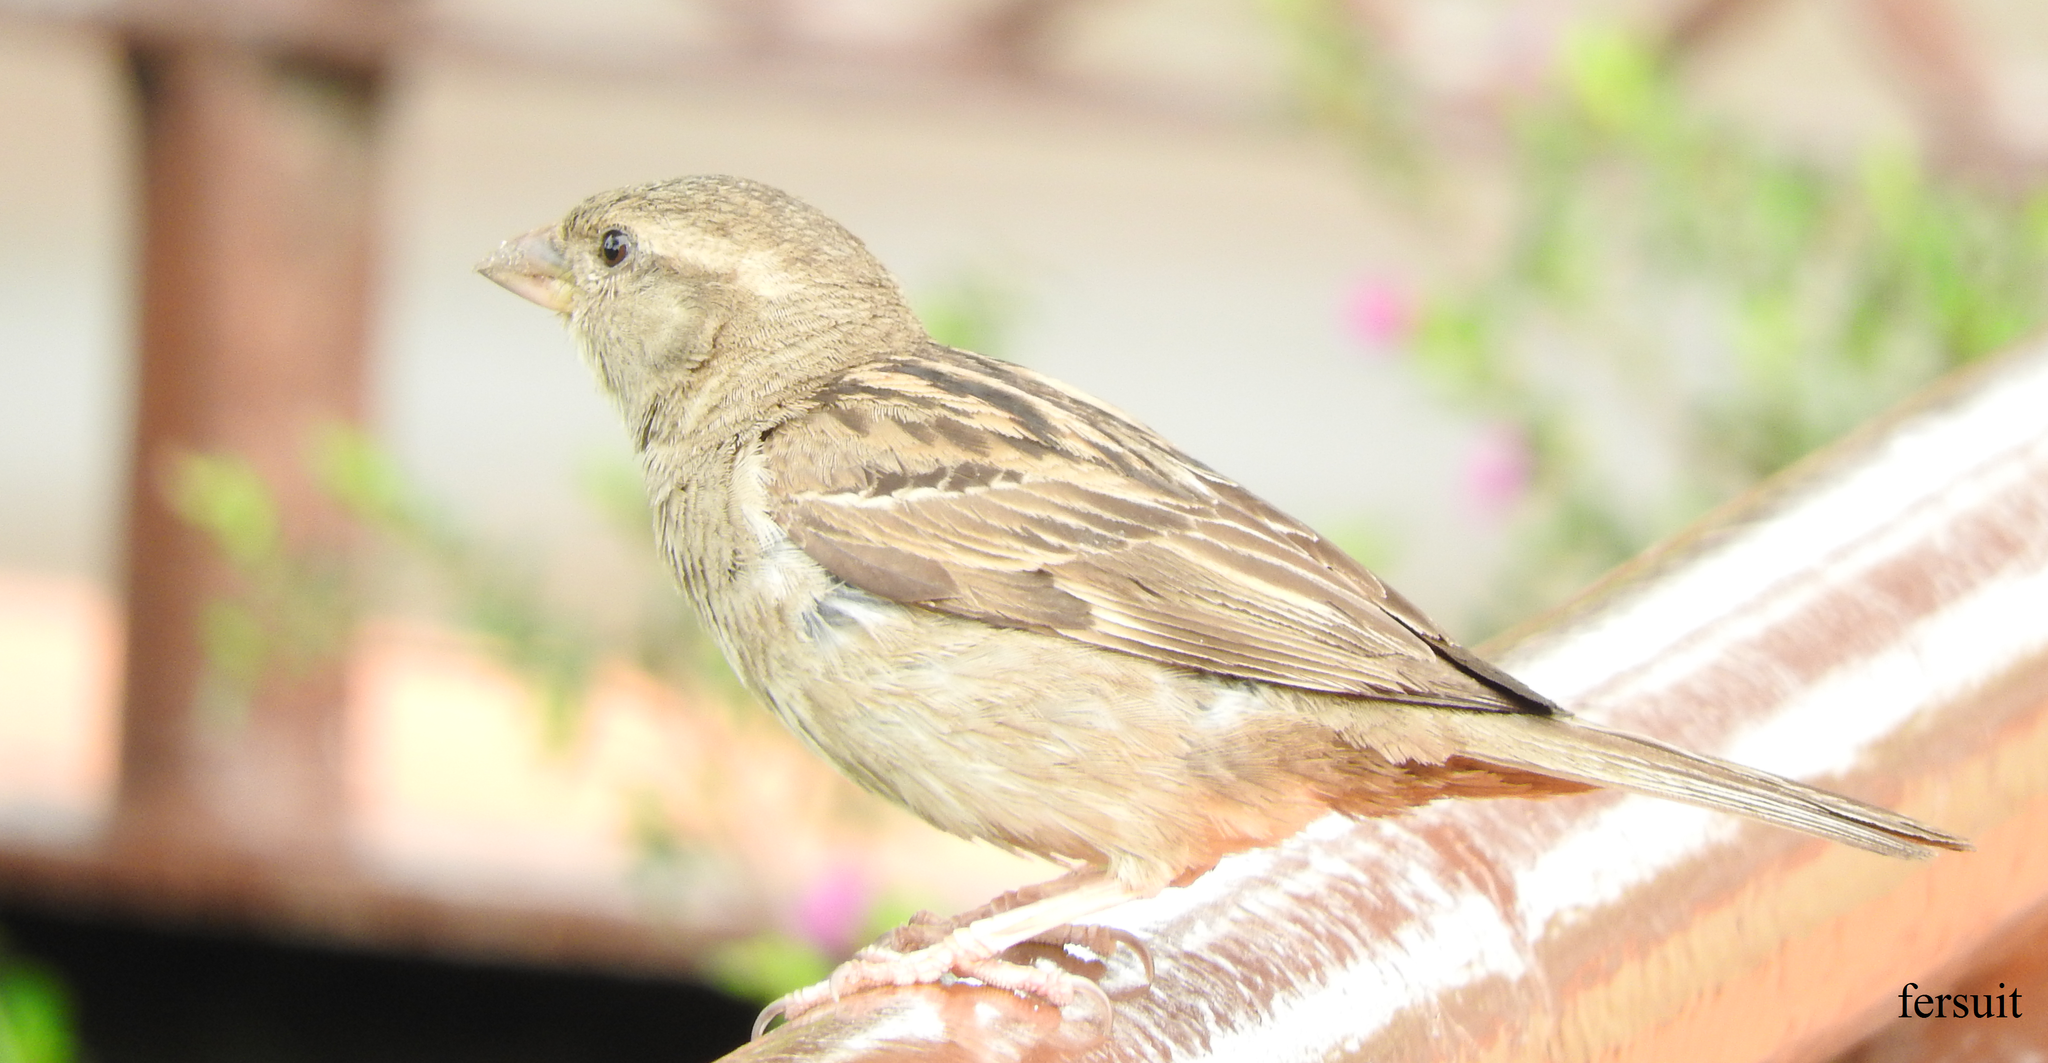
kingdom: Animalia
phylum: Chordata
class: Aves
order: Passeriformes
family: Passeridae
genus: Passer
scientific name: Passer domesticus
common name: House sparrow
